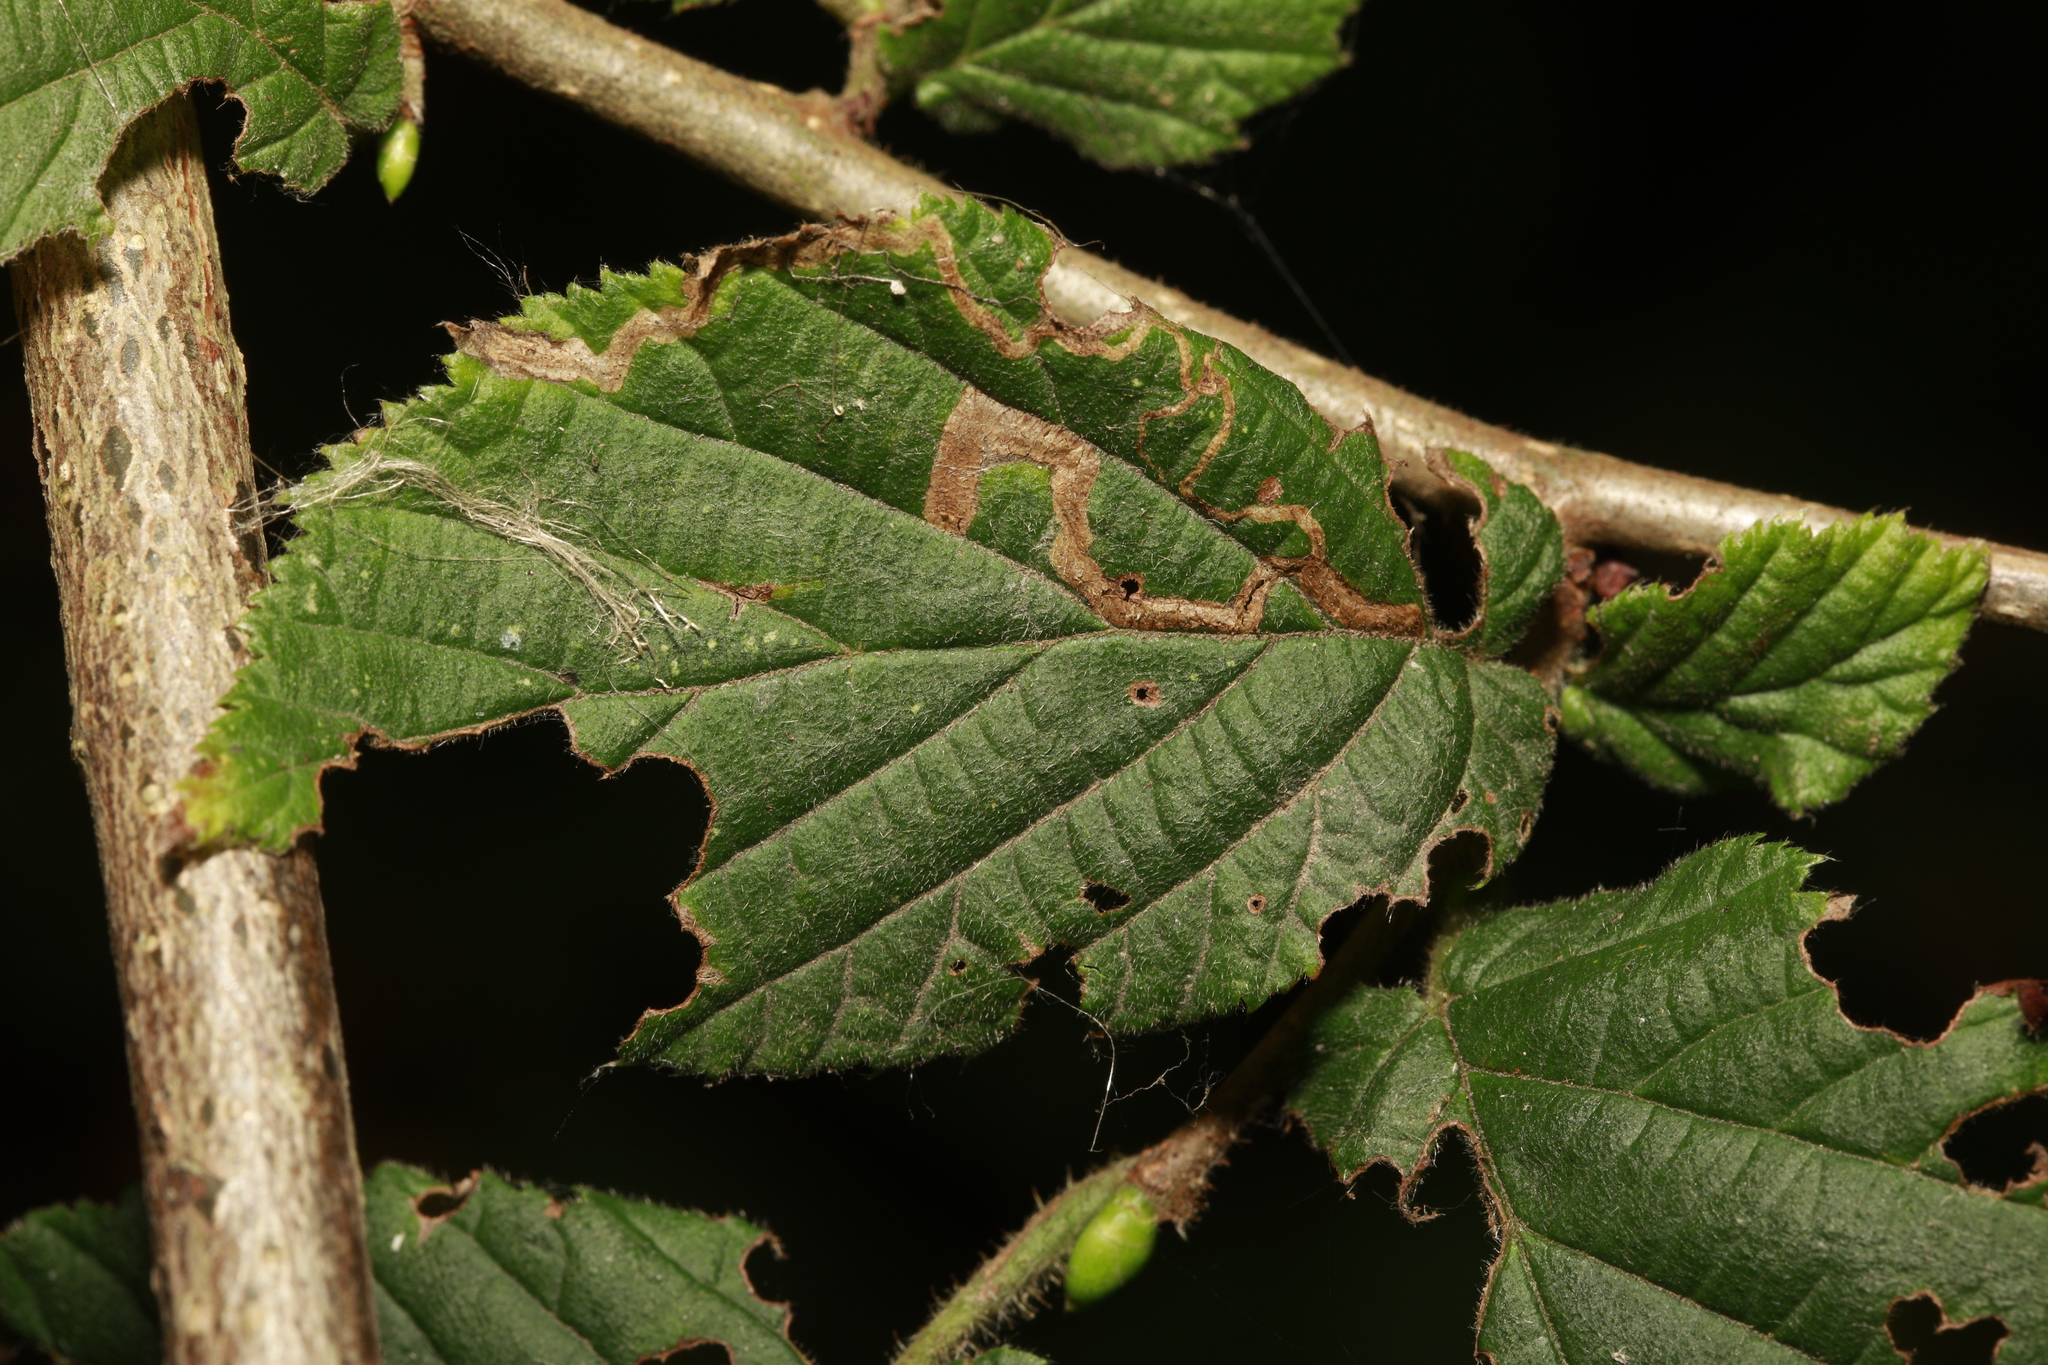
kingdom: Animalia
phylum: Arthropoda
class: Insecta
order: Lepidoptera
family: Nepticulidae
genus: Stigmella
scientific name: Stigmella microtheriella
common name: Nut-tree pigmy
